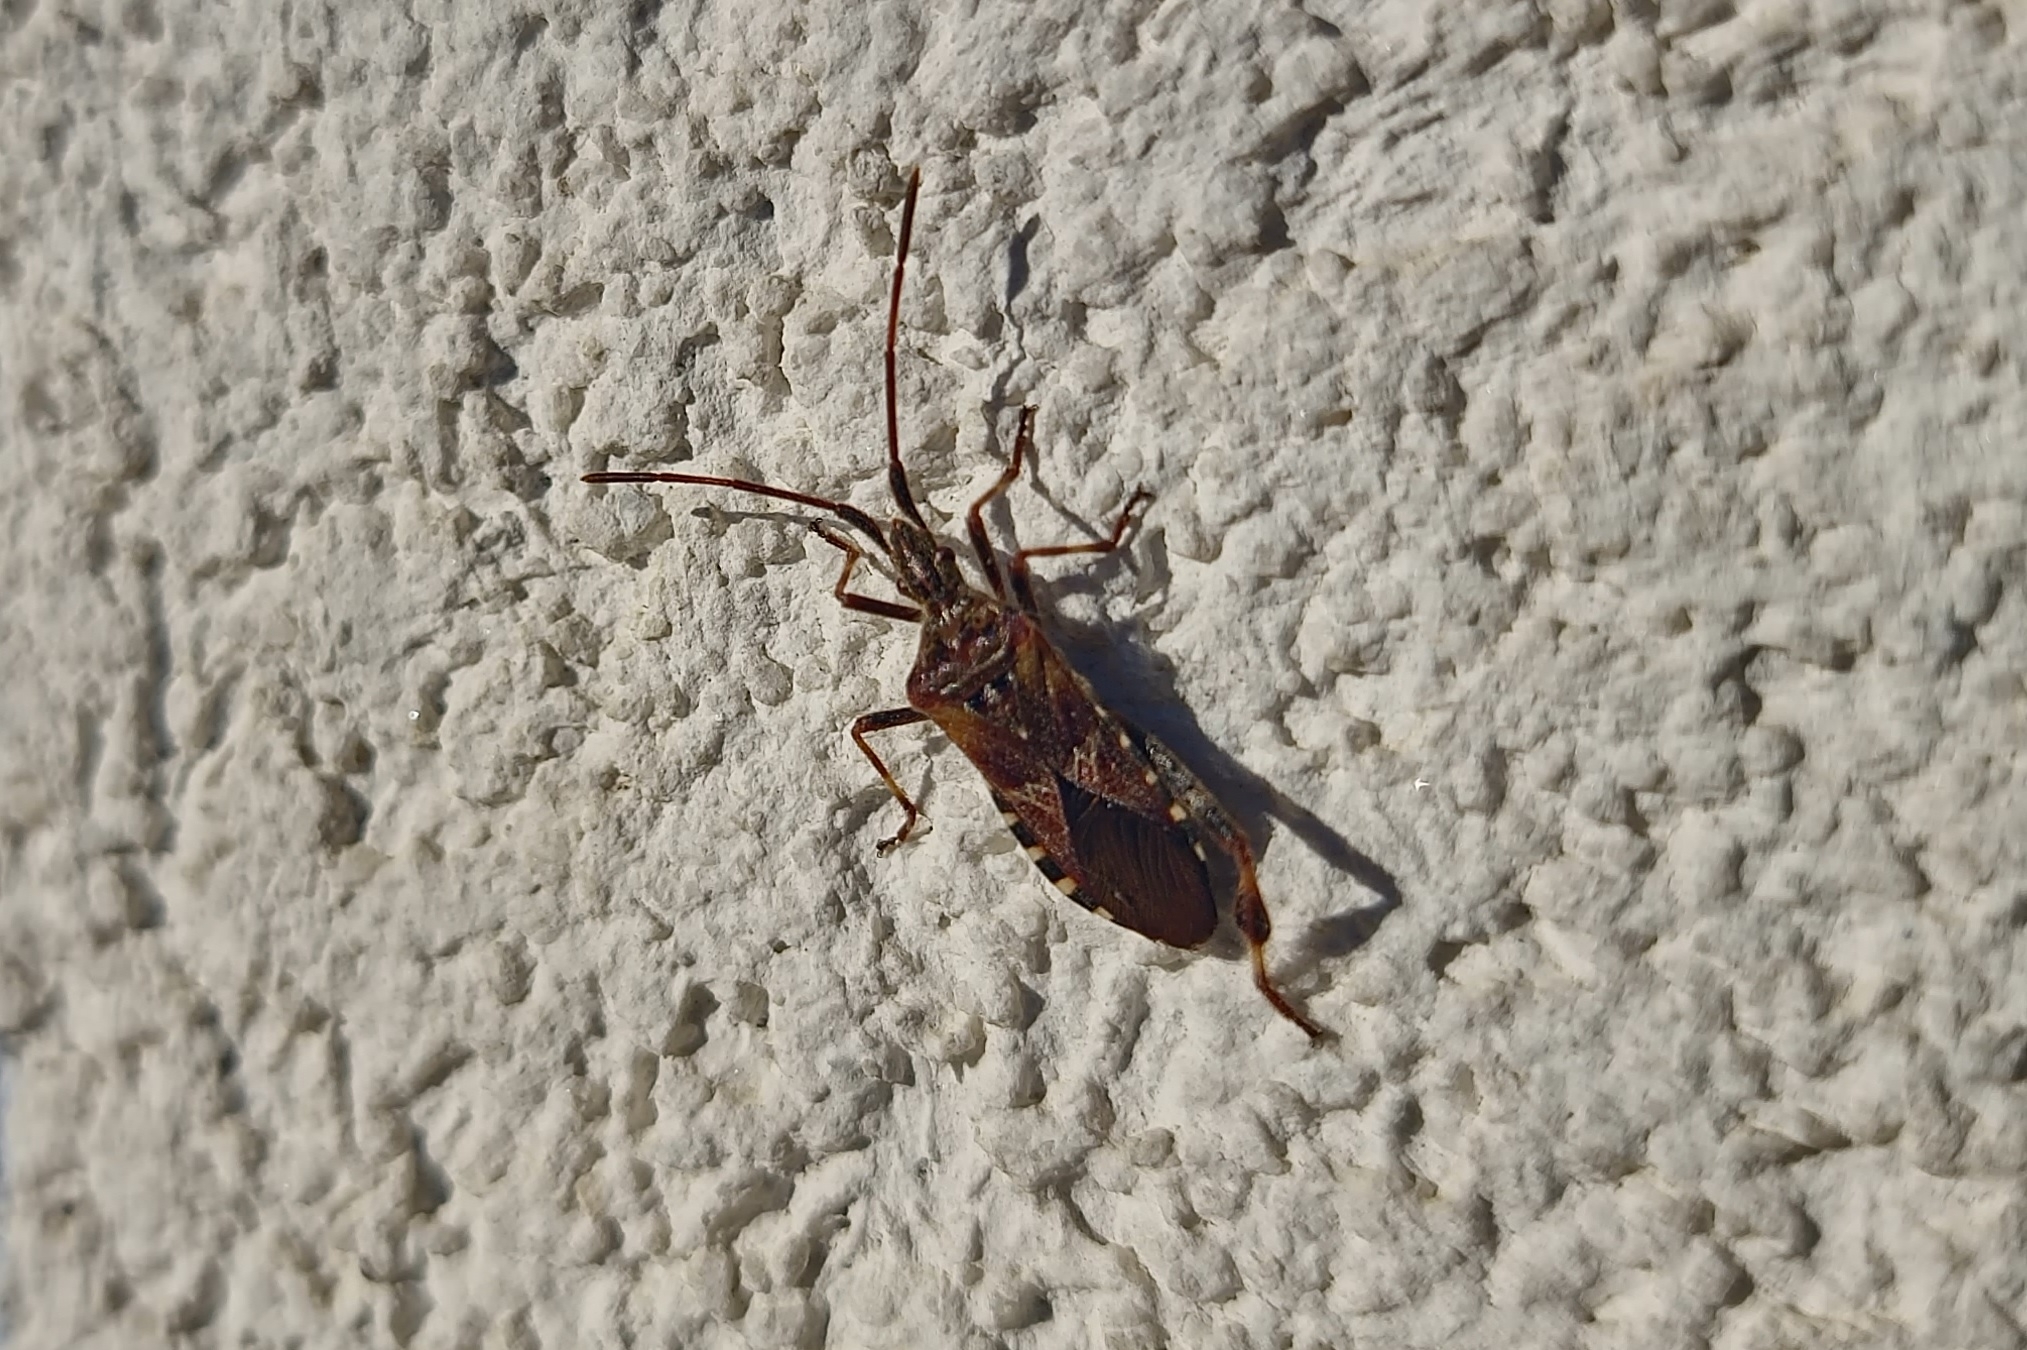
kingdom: Animalia
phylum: Arthropoda
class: Insecta
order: Hemiptera
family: Coreidae
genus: Leptoglossus
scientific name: Leptoglossus occidentalis
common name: Western conifer-seed bug
